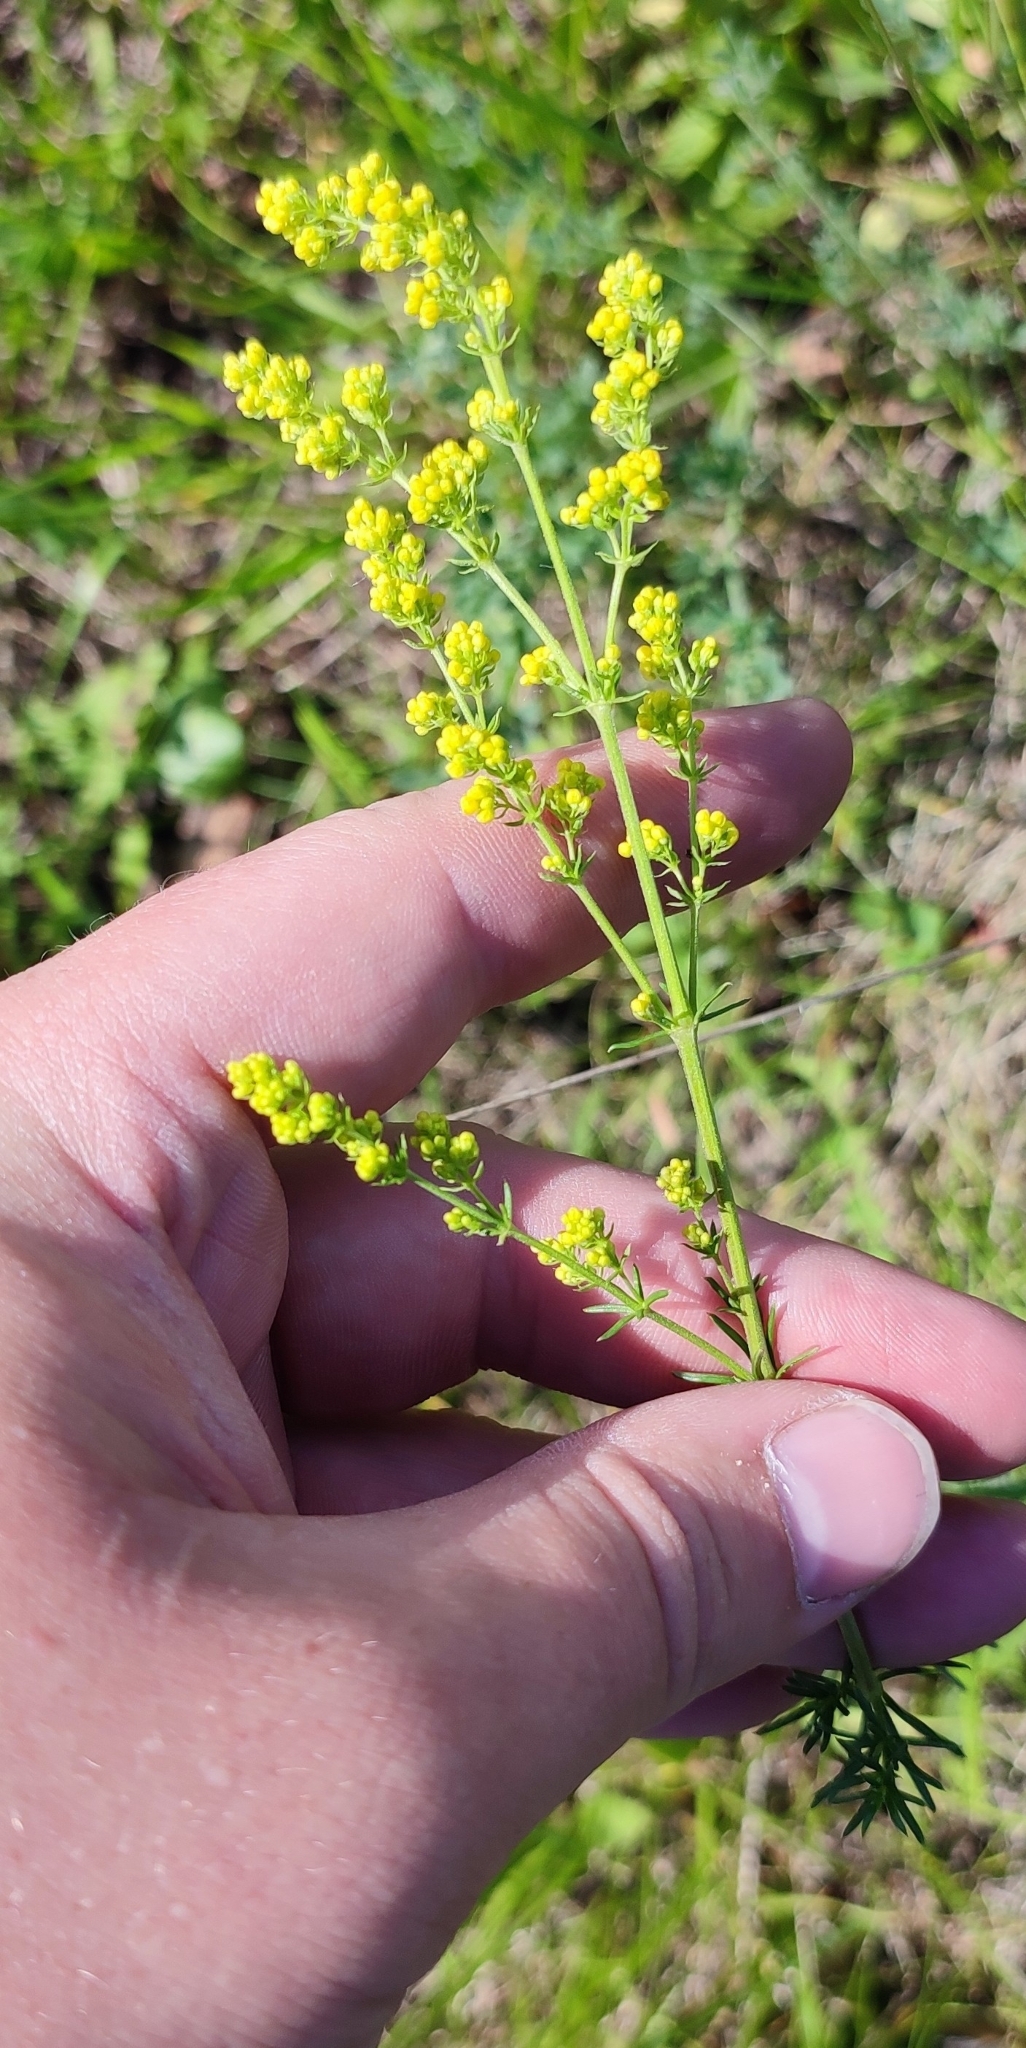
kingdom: Plantae
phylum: Tracheophyta
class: Magnoliopsida
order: Gentianales
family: Rubiaceae
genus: Galium
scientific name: Galium verum
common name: Lady's bedstraw
